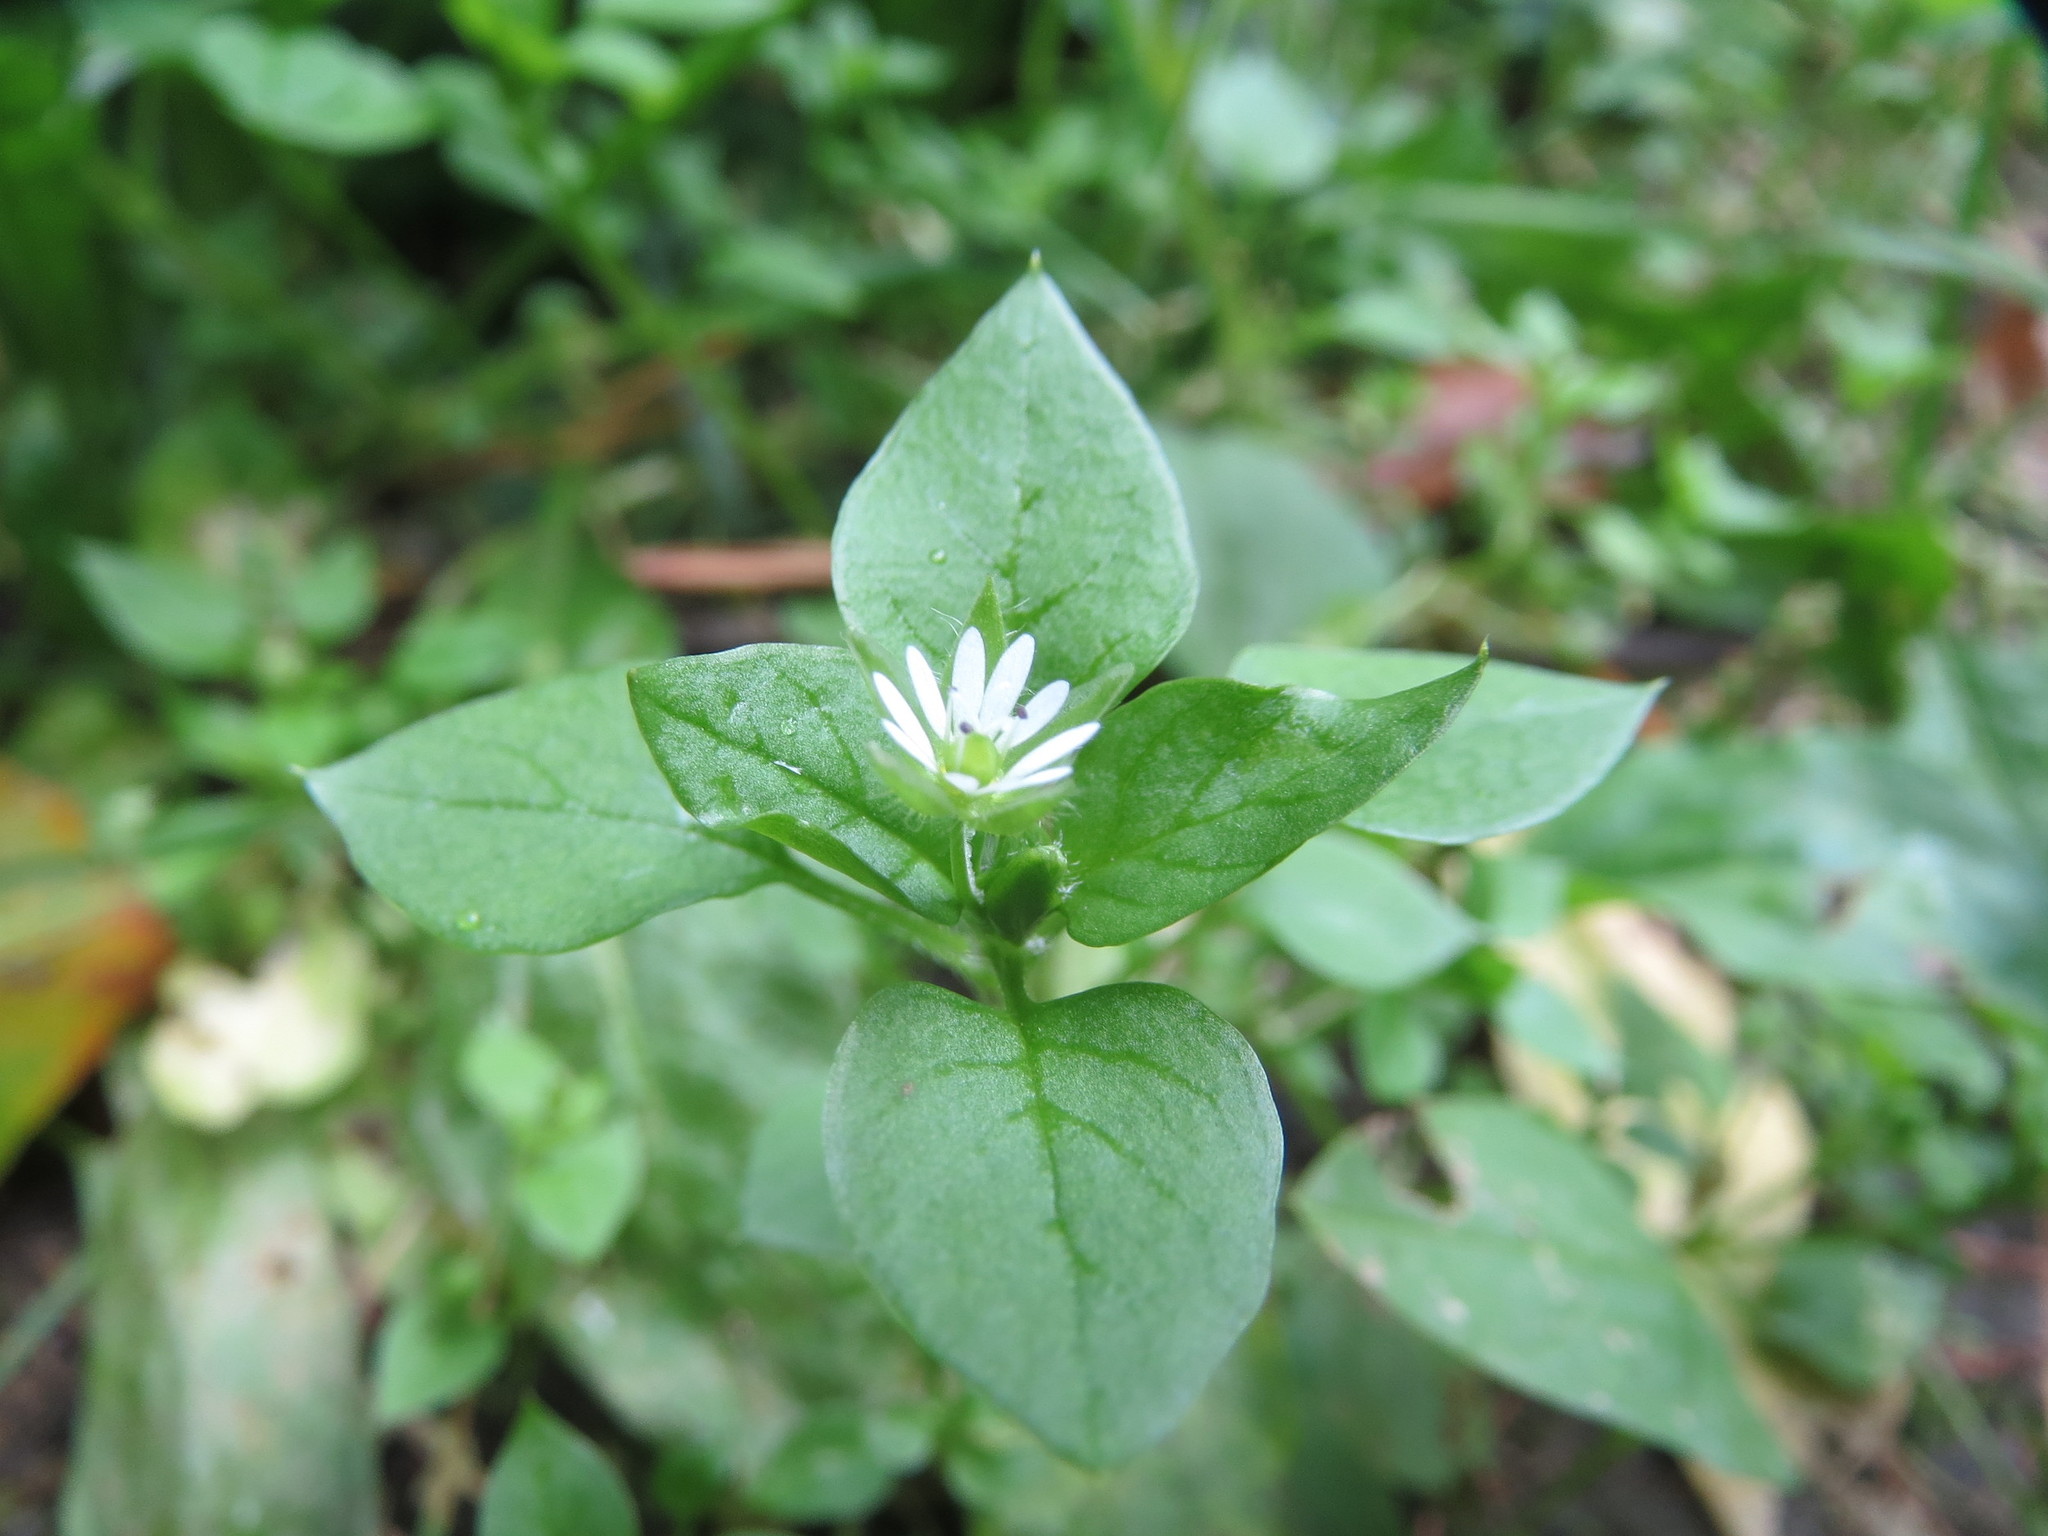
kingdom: Plantae
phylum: Tracheophyta
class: Magnoliopsida
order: Caryophyllales
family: Caryophyllaceae
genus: Stellaria
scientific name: Stellaria media
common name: Common chickweed
